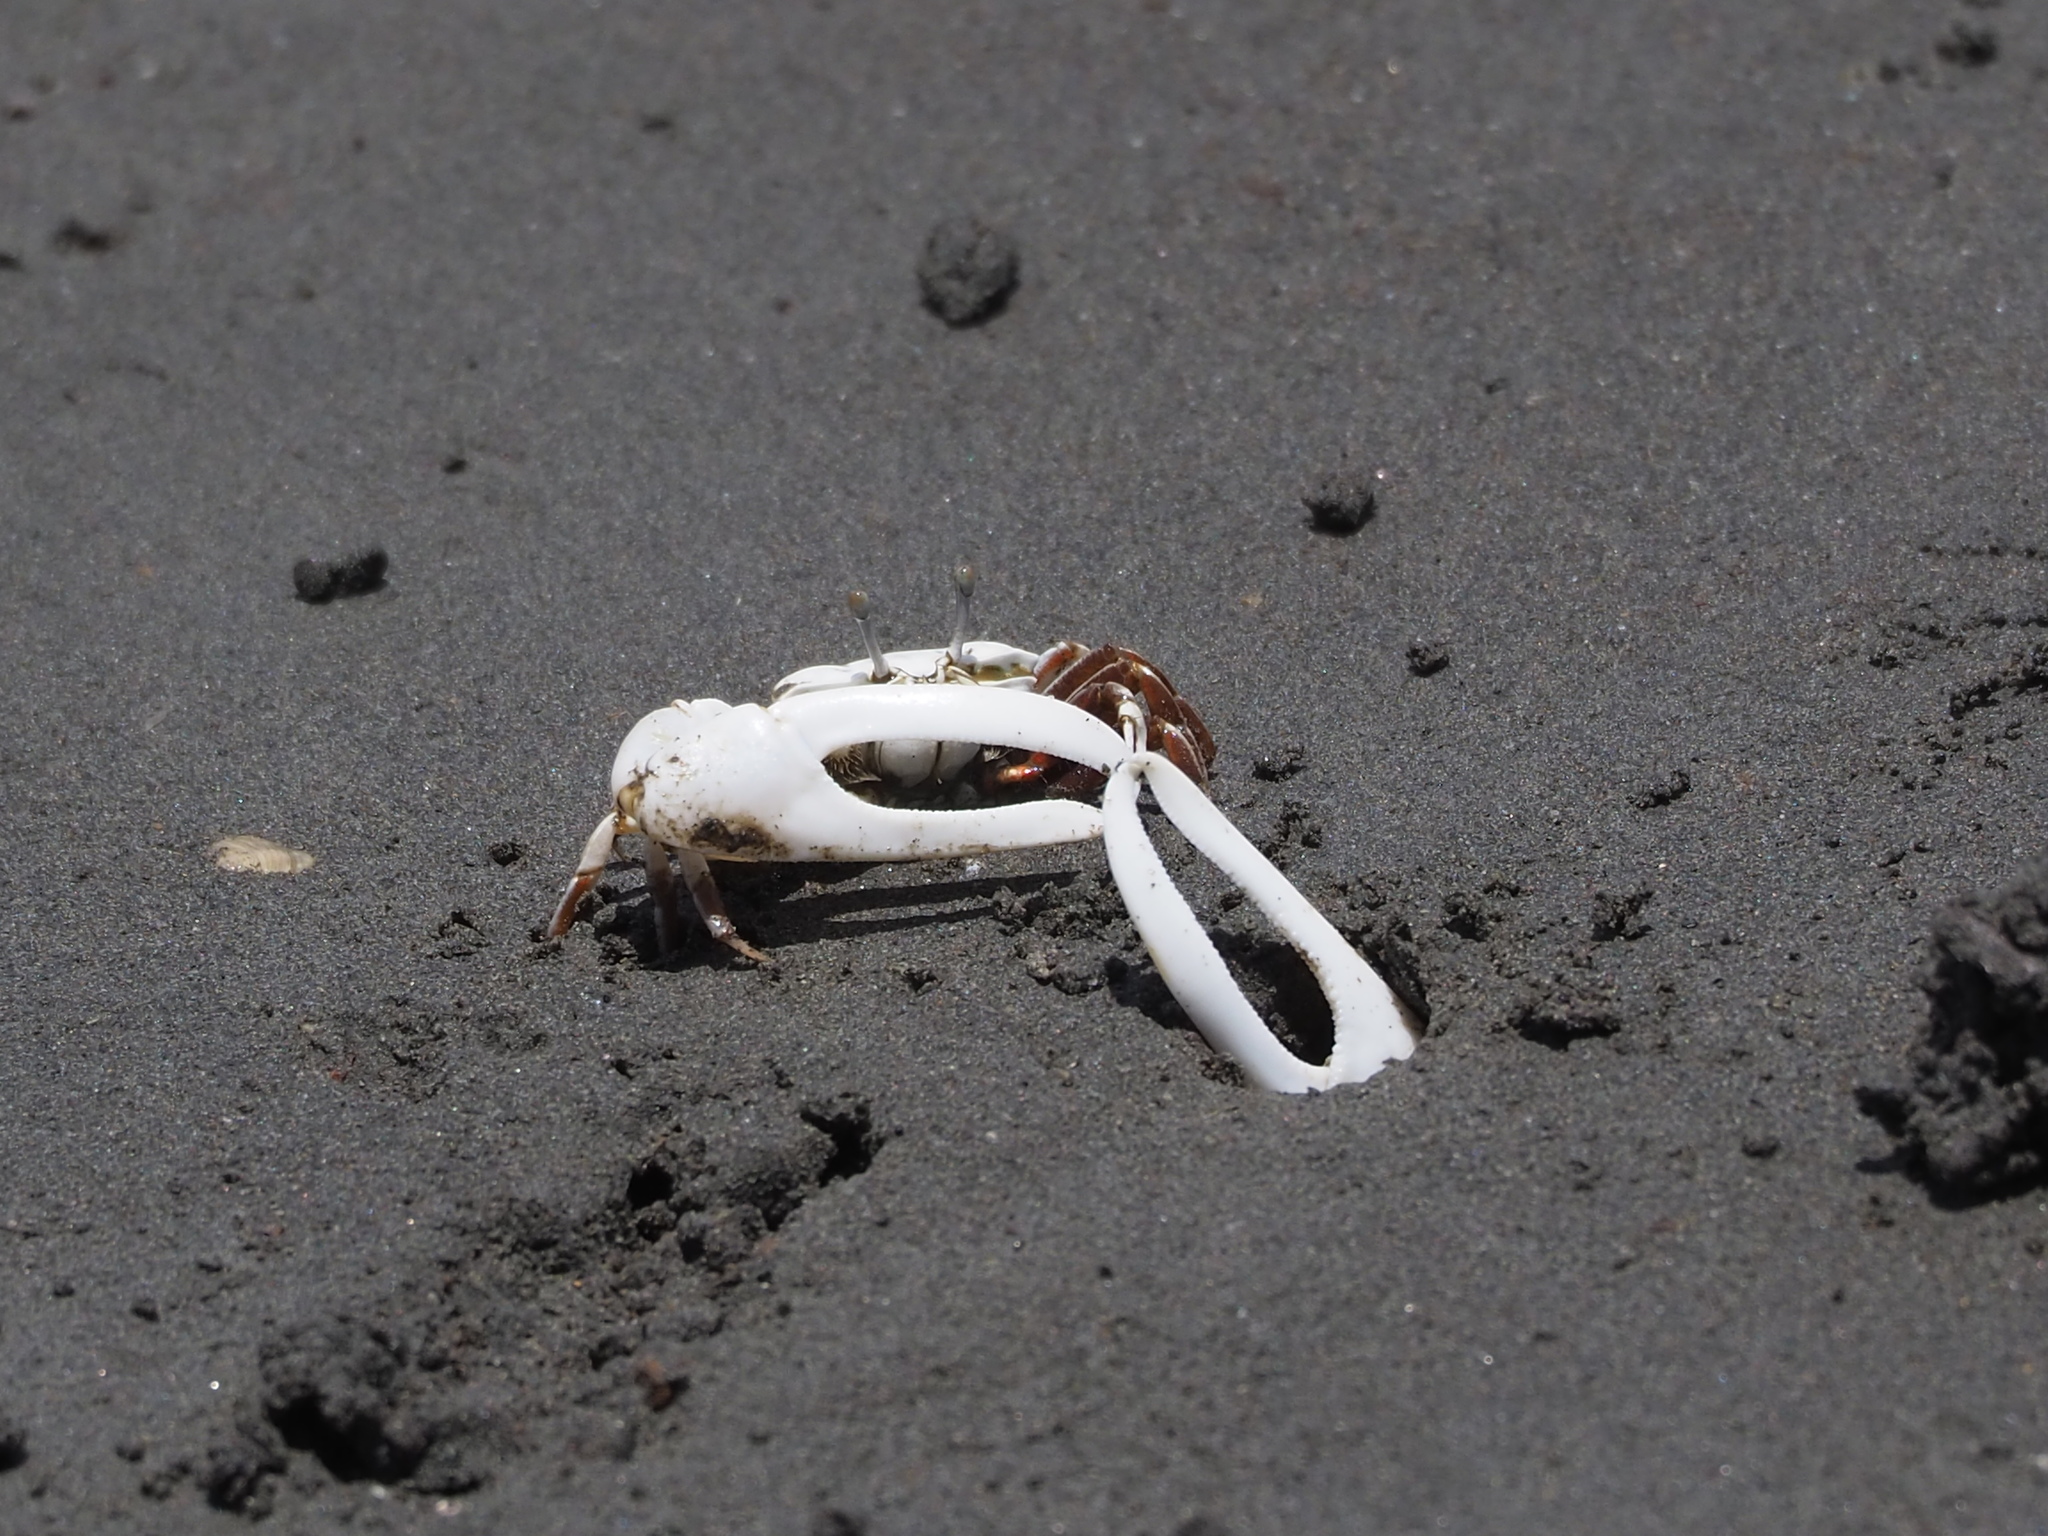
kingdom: Animalia
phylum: Arthropoda
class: Malacostraca
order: Decapoda
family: Ocypodidae
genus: Austruca
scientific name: Austruca lactea
